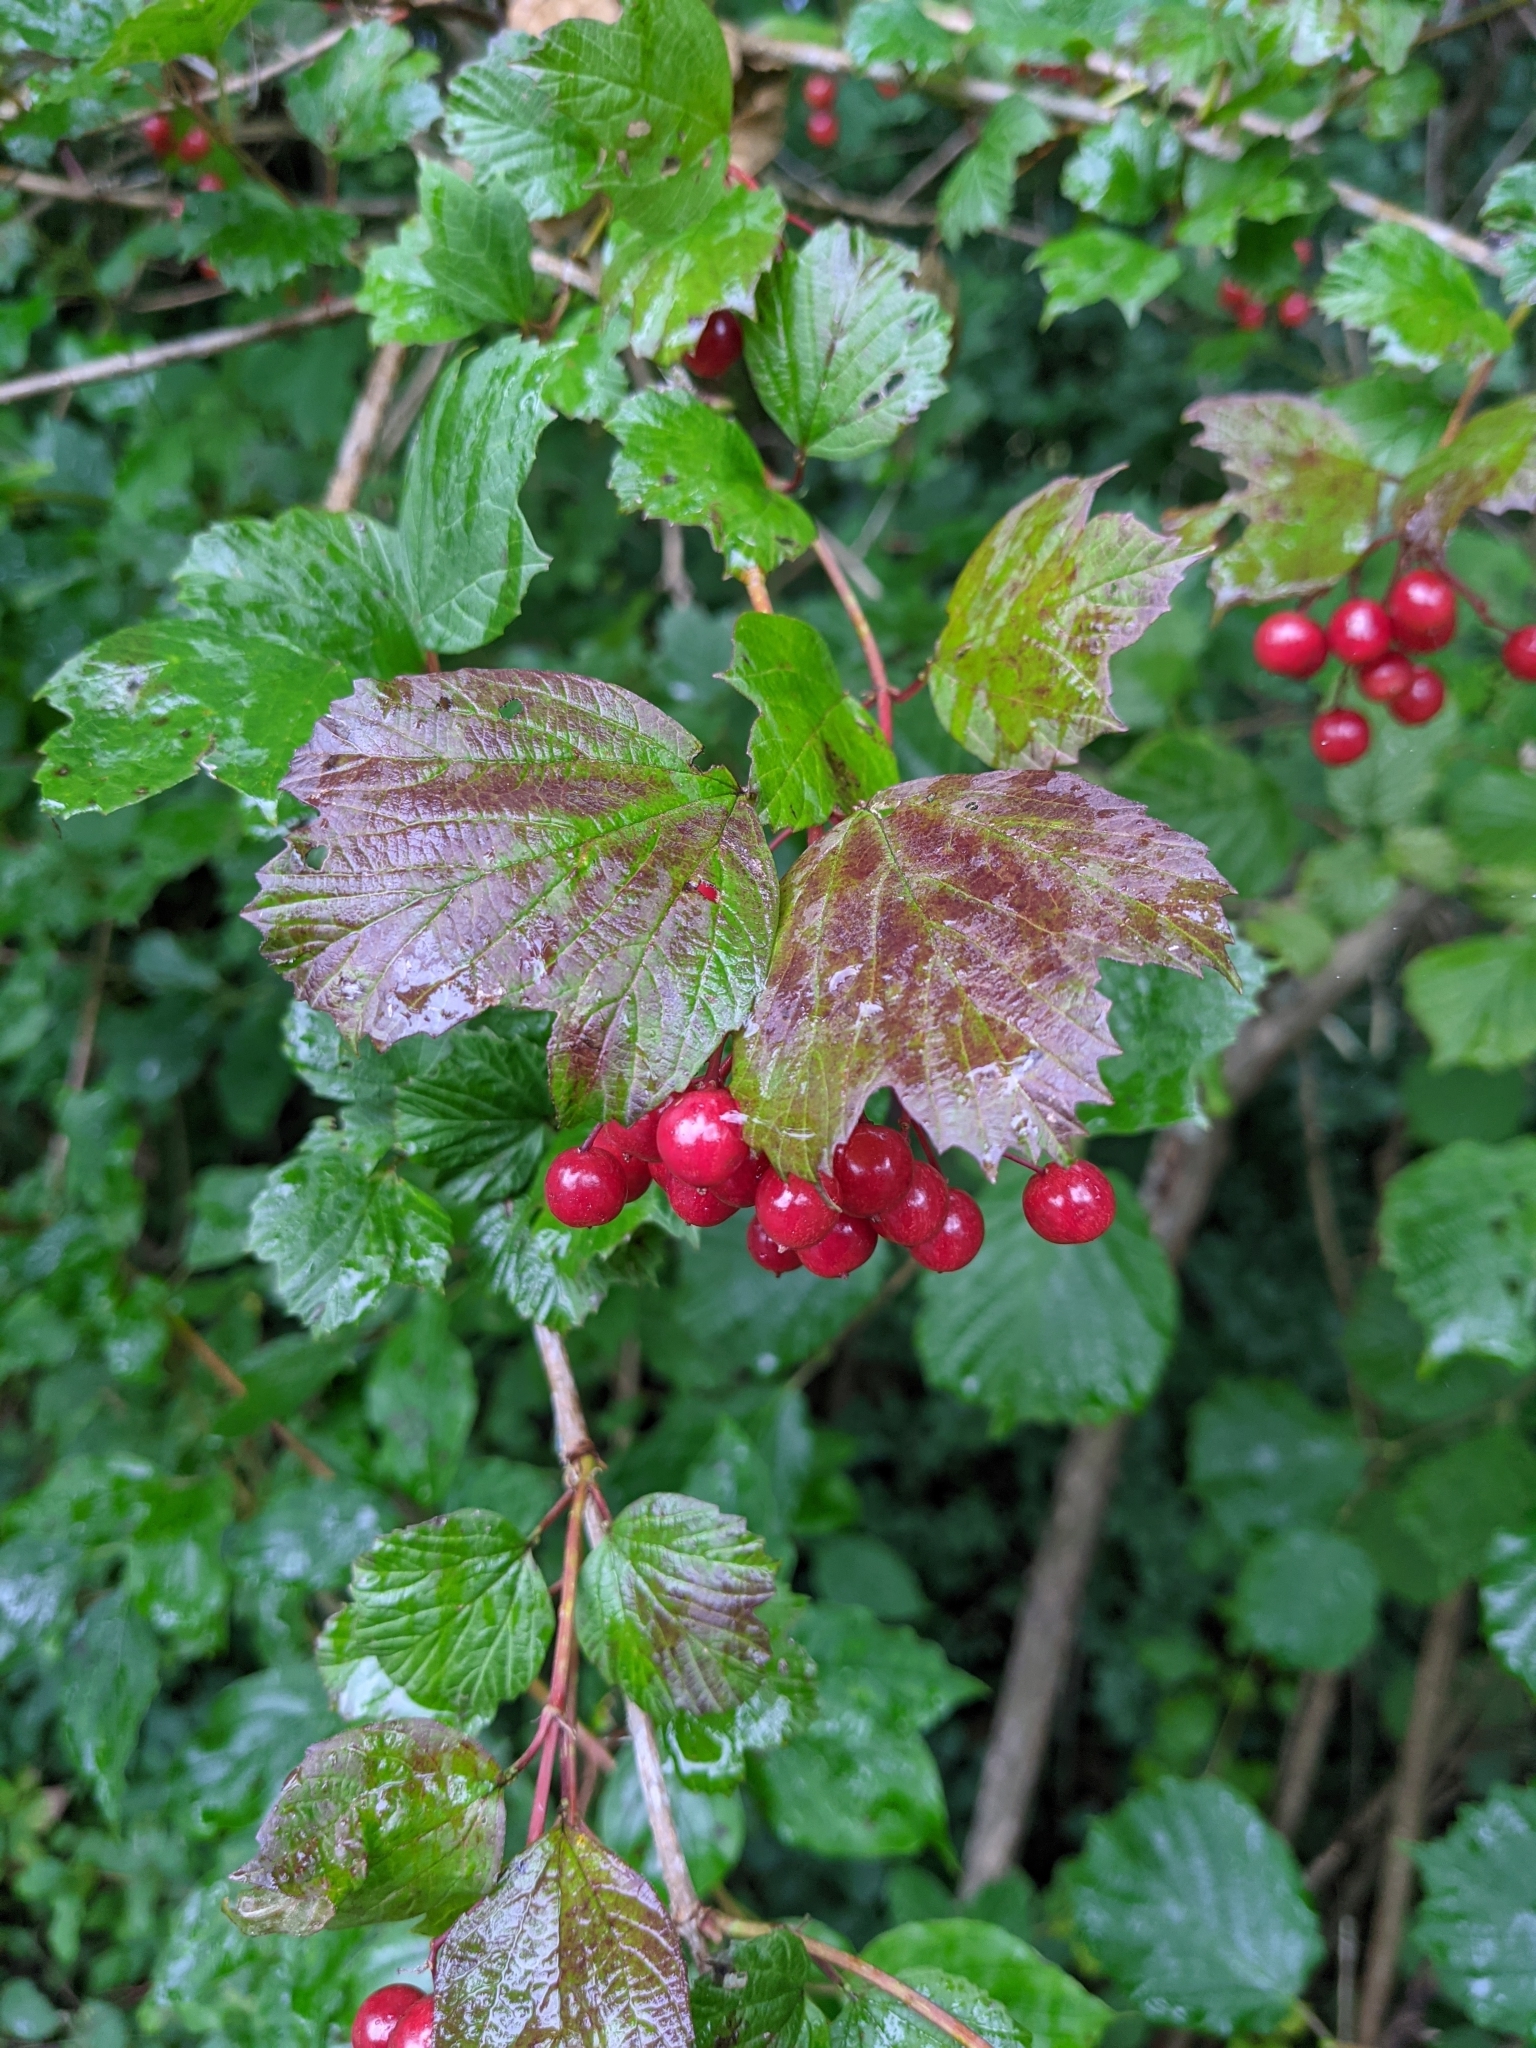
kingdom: Plantae
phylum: Tracheophyta
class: Magnoliopsida
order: Dipsacales
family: Viburnaceae
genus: Viburnum
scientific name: Viburnum opulus
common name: Guelder-rose
